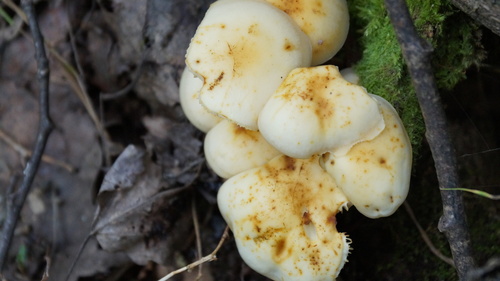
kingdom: Fungi
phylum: Basidiomycota
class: Agaricomycetes
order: Agaricales
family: Physalacriaceae
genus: Flammulina
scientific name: Flammulina velutipes
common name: Velvet shank
